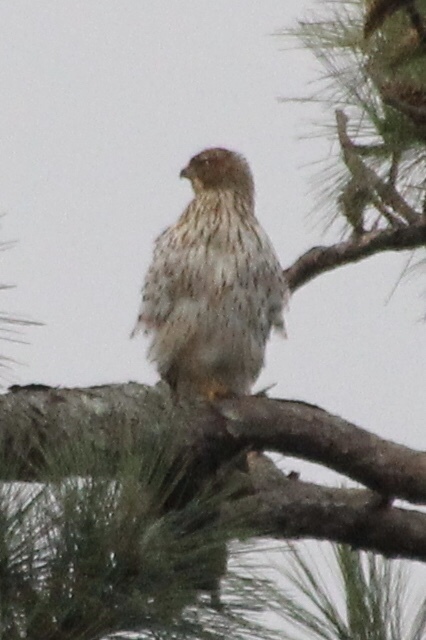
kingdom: Animalia
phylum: Chordata
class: Aves
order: Accipitriformes
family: Accipitridae
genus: Buteo
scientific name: Buteo lineatus
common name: Red-shouldered hawk
